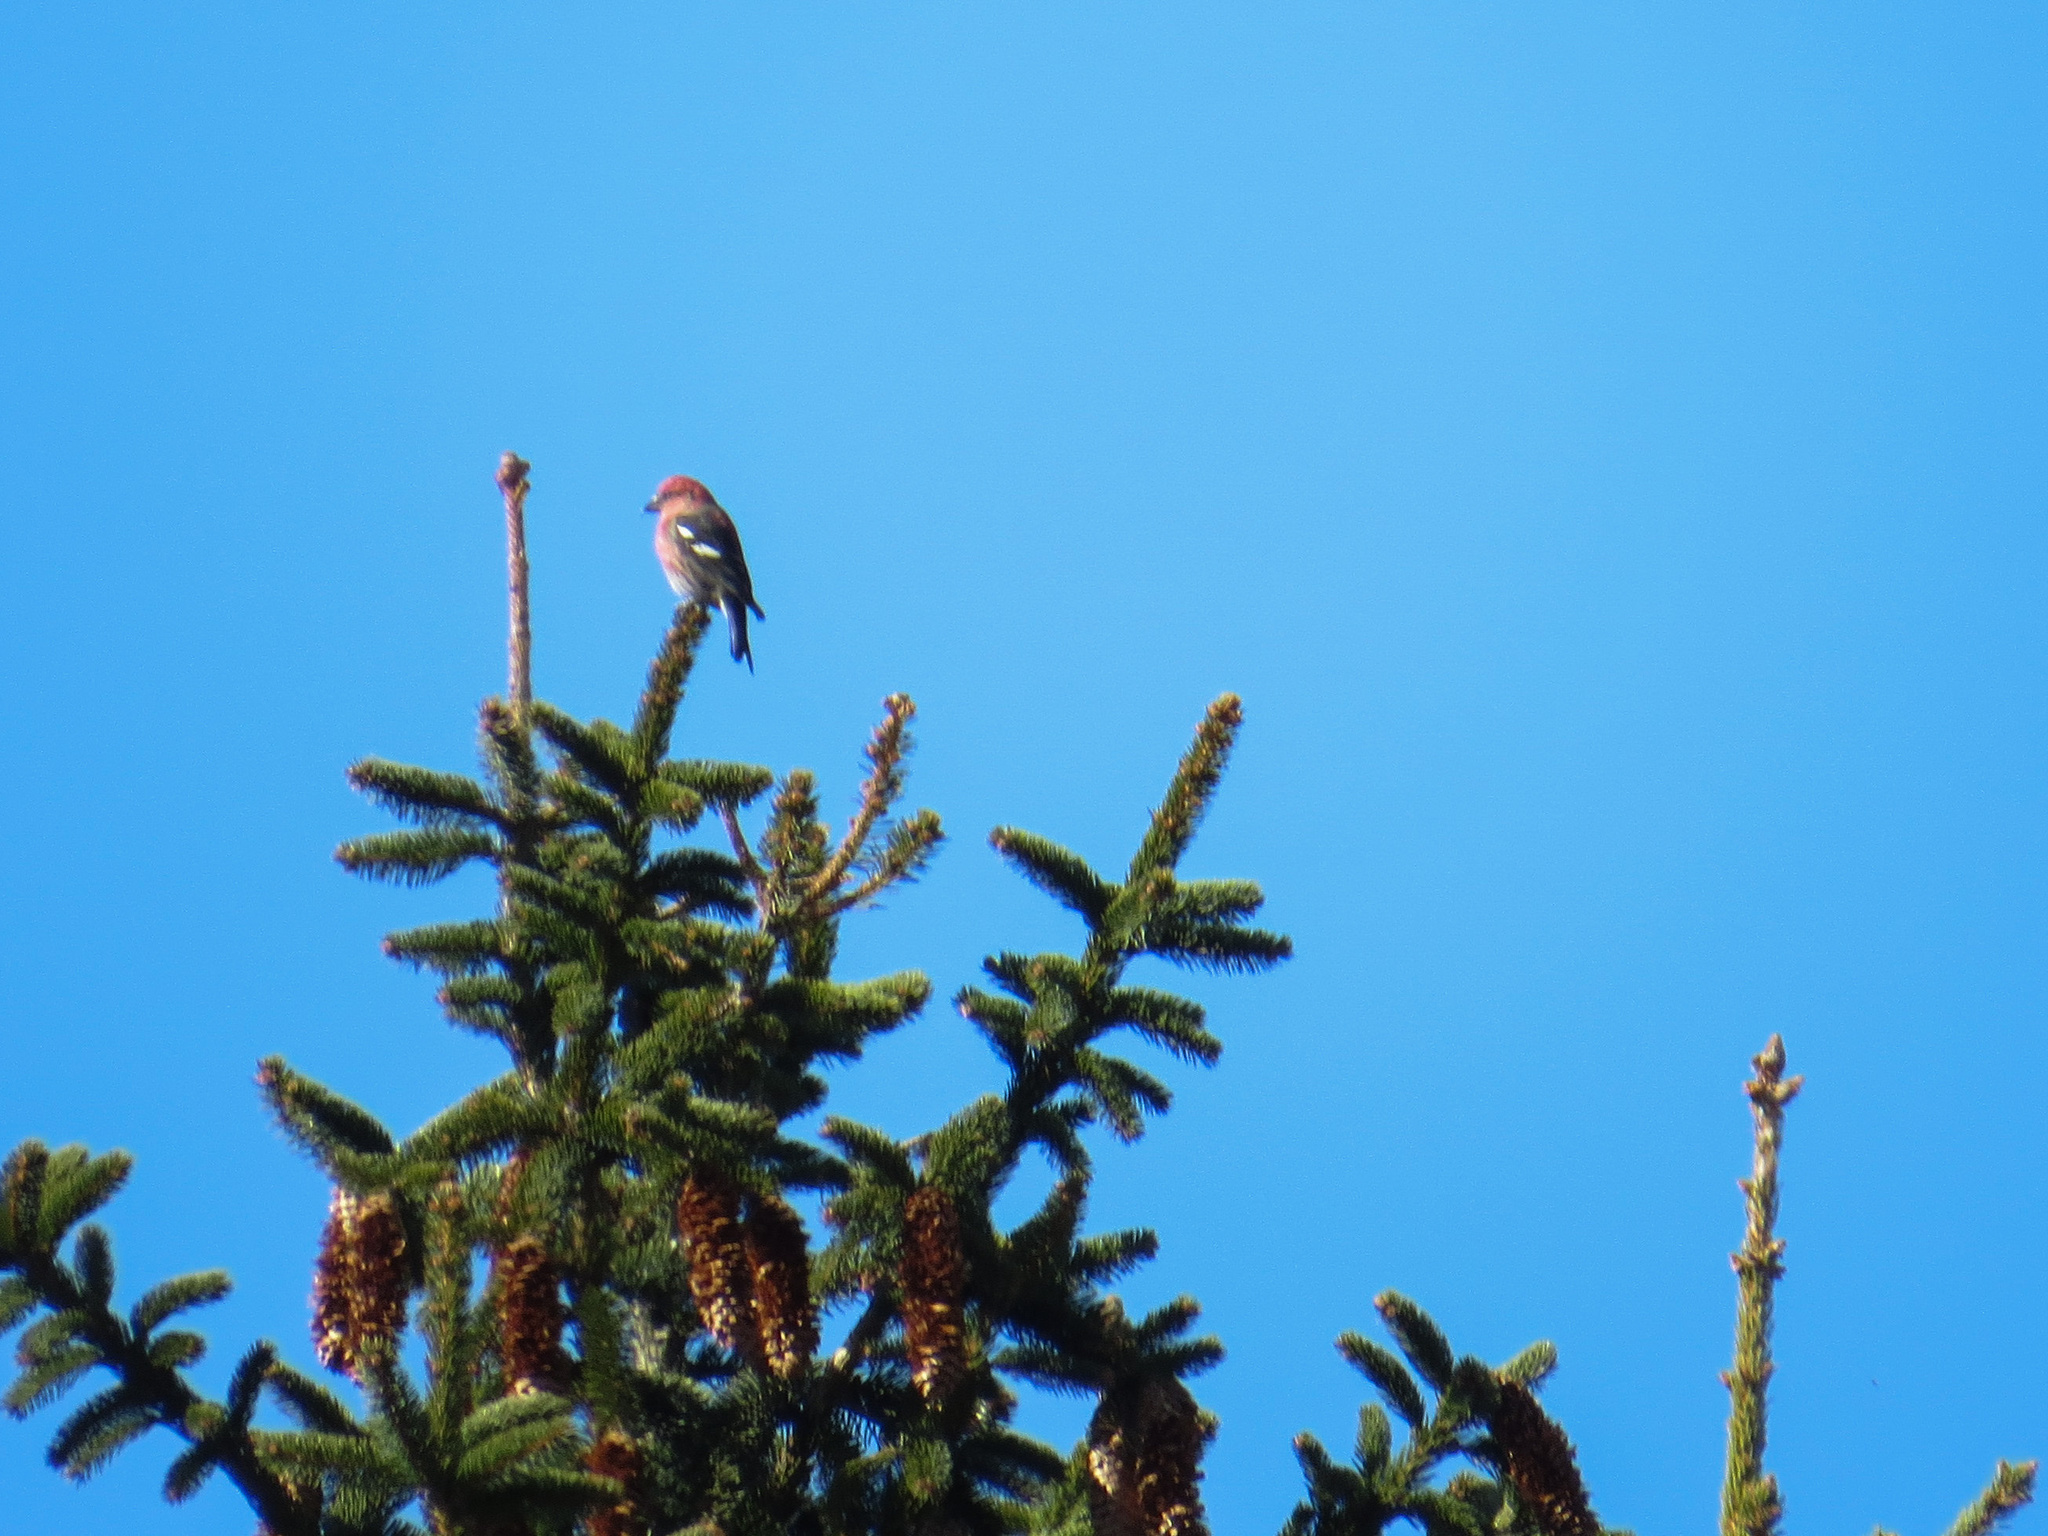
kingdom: Animalia
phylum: Chordata
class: Aves
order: Passeriformes
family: Fringillidae
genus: Loxia
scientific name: Loxia leucoptera
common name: Two-barred crossbill
